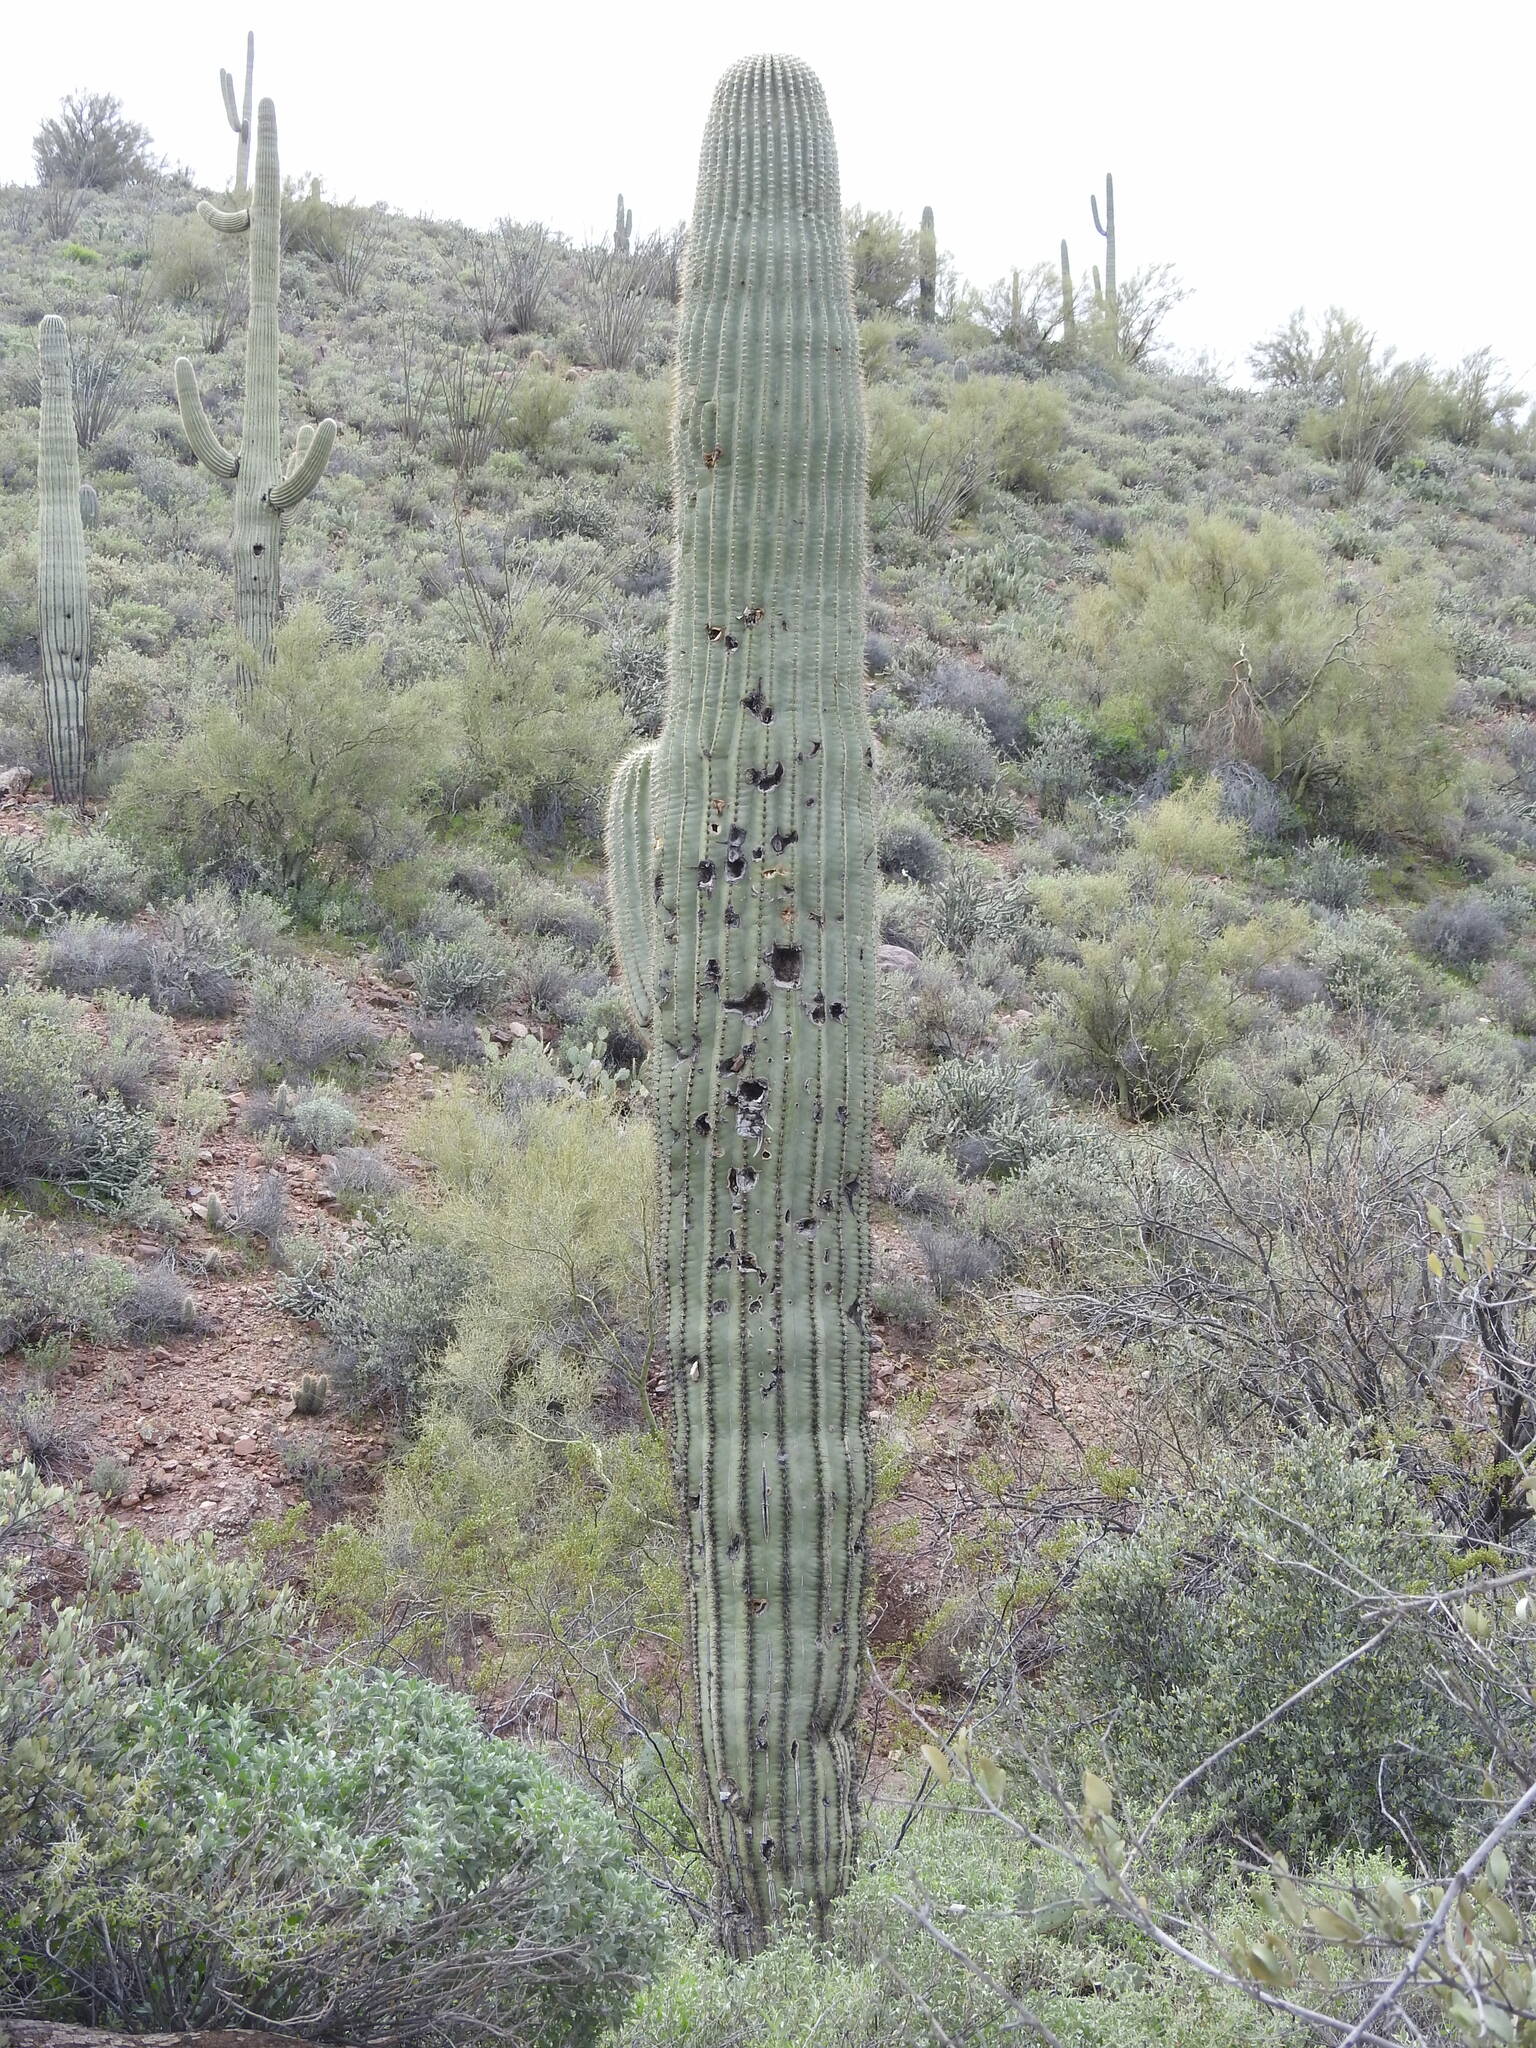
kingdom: Plantae
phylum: Tracheophyta
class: Magnoliopsida
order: Caryophyllales
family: Cactaceae
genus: Carnegiea
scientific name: Carnegiea gigantea
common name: Saguaro
